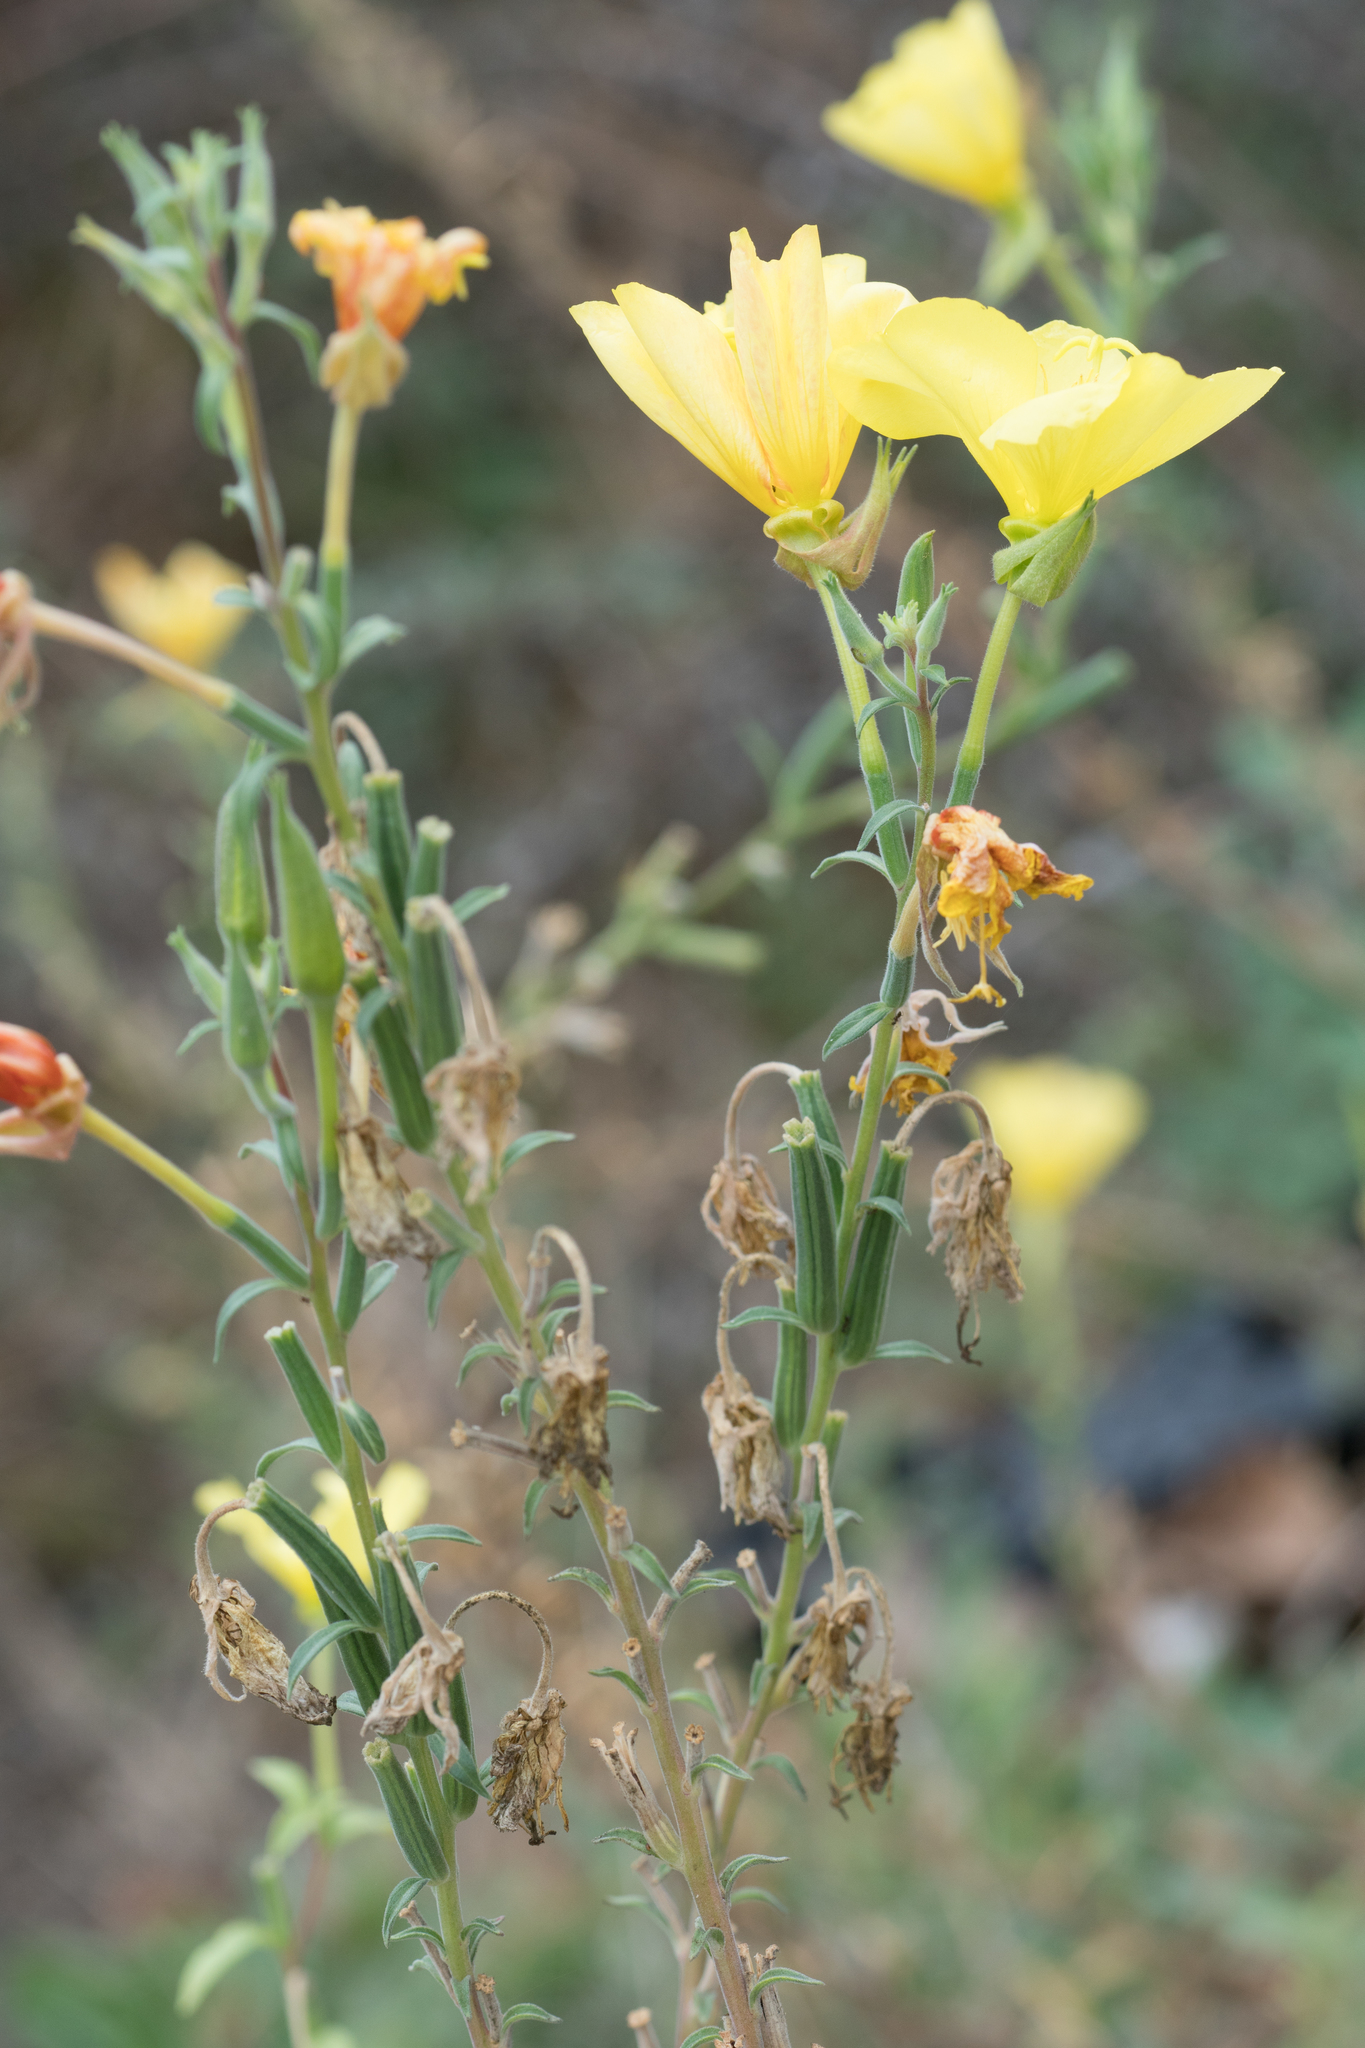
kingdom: Plantae
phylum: Tracheophyta
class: Magnoliopsida
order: Myrtales
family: Onagraceae
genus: Oenothera
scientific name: Oenothera elata
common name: Hooker's evening-primrose
